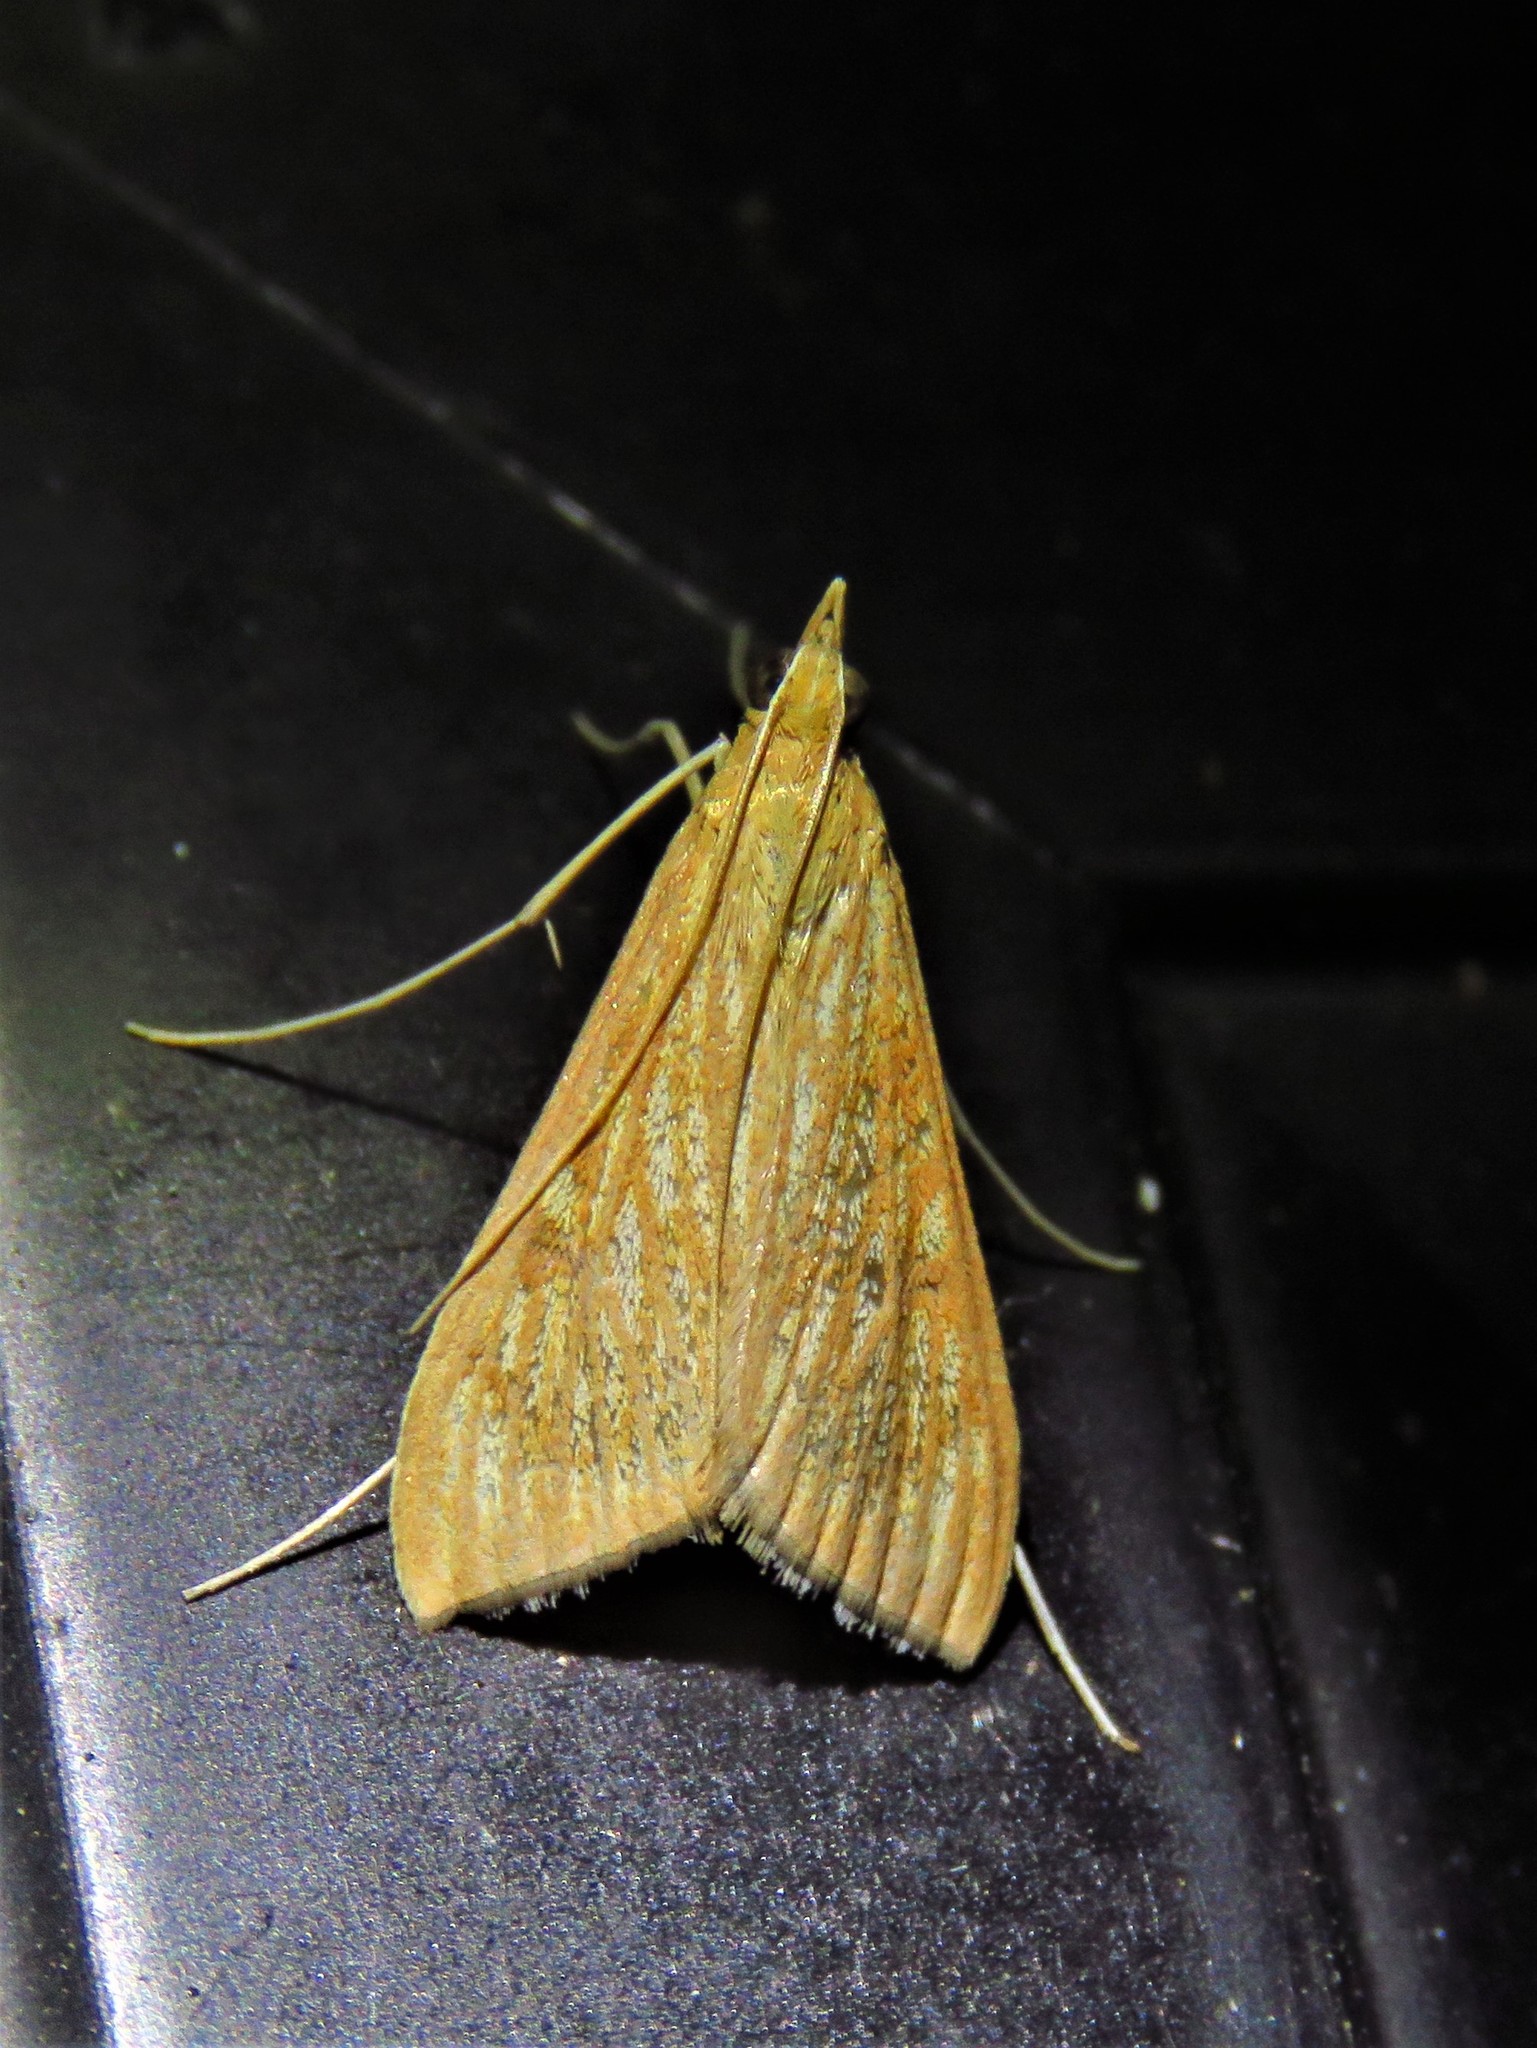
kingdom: Animalia
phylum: Arthropoda
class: Insecta
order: Lepidoptera
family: Crambidae
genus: Antigastra
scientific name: Antigastra catalaunalis
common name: Spanish dot
